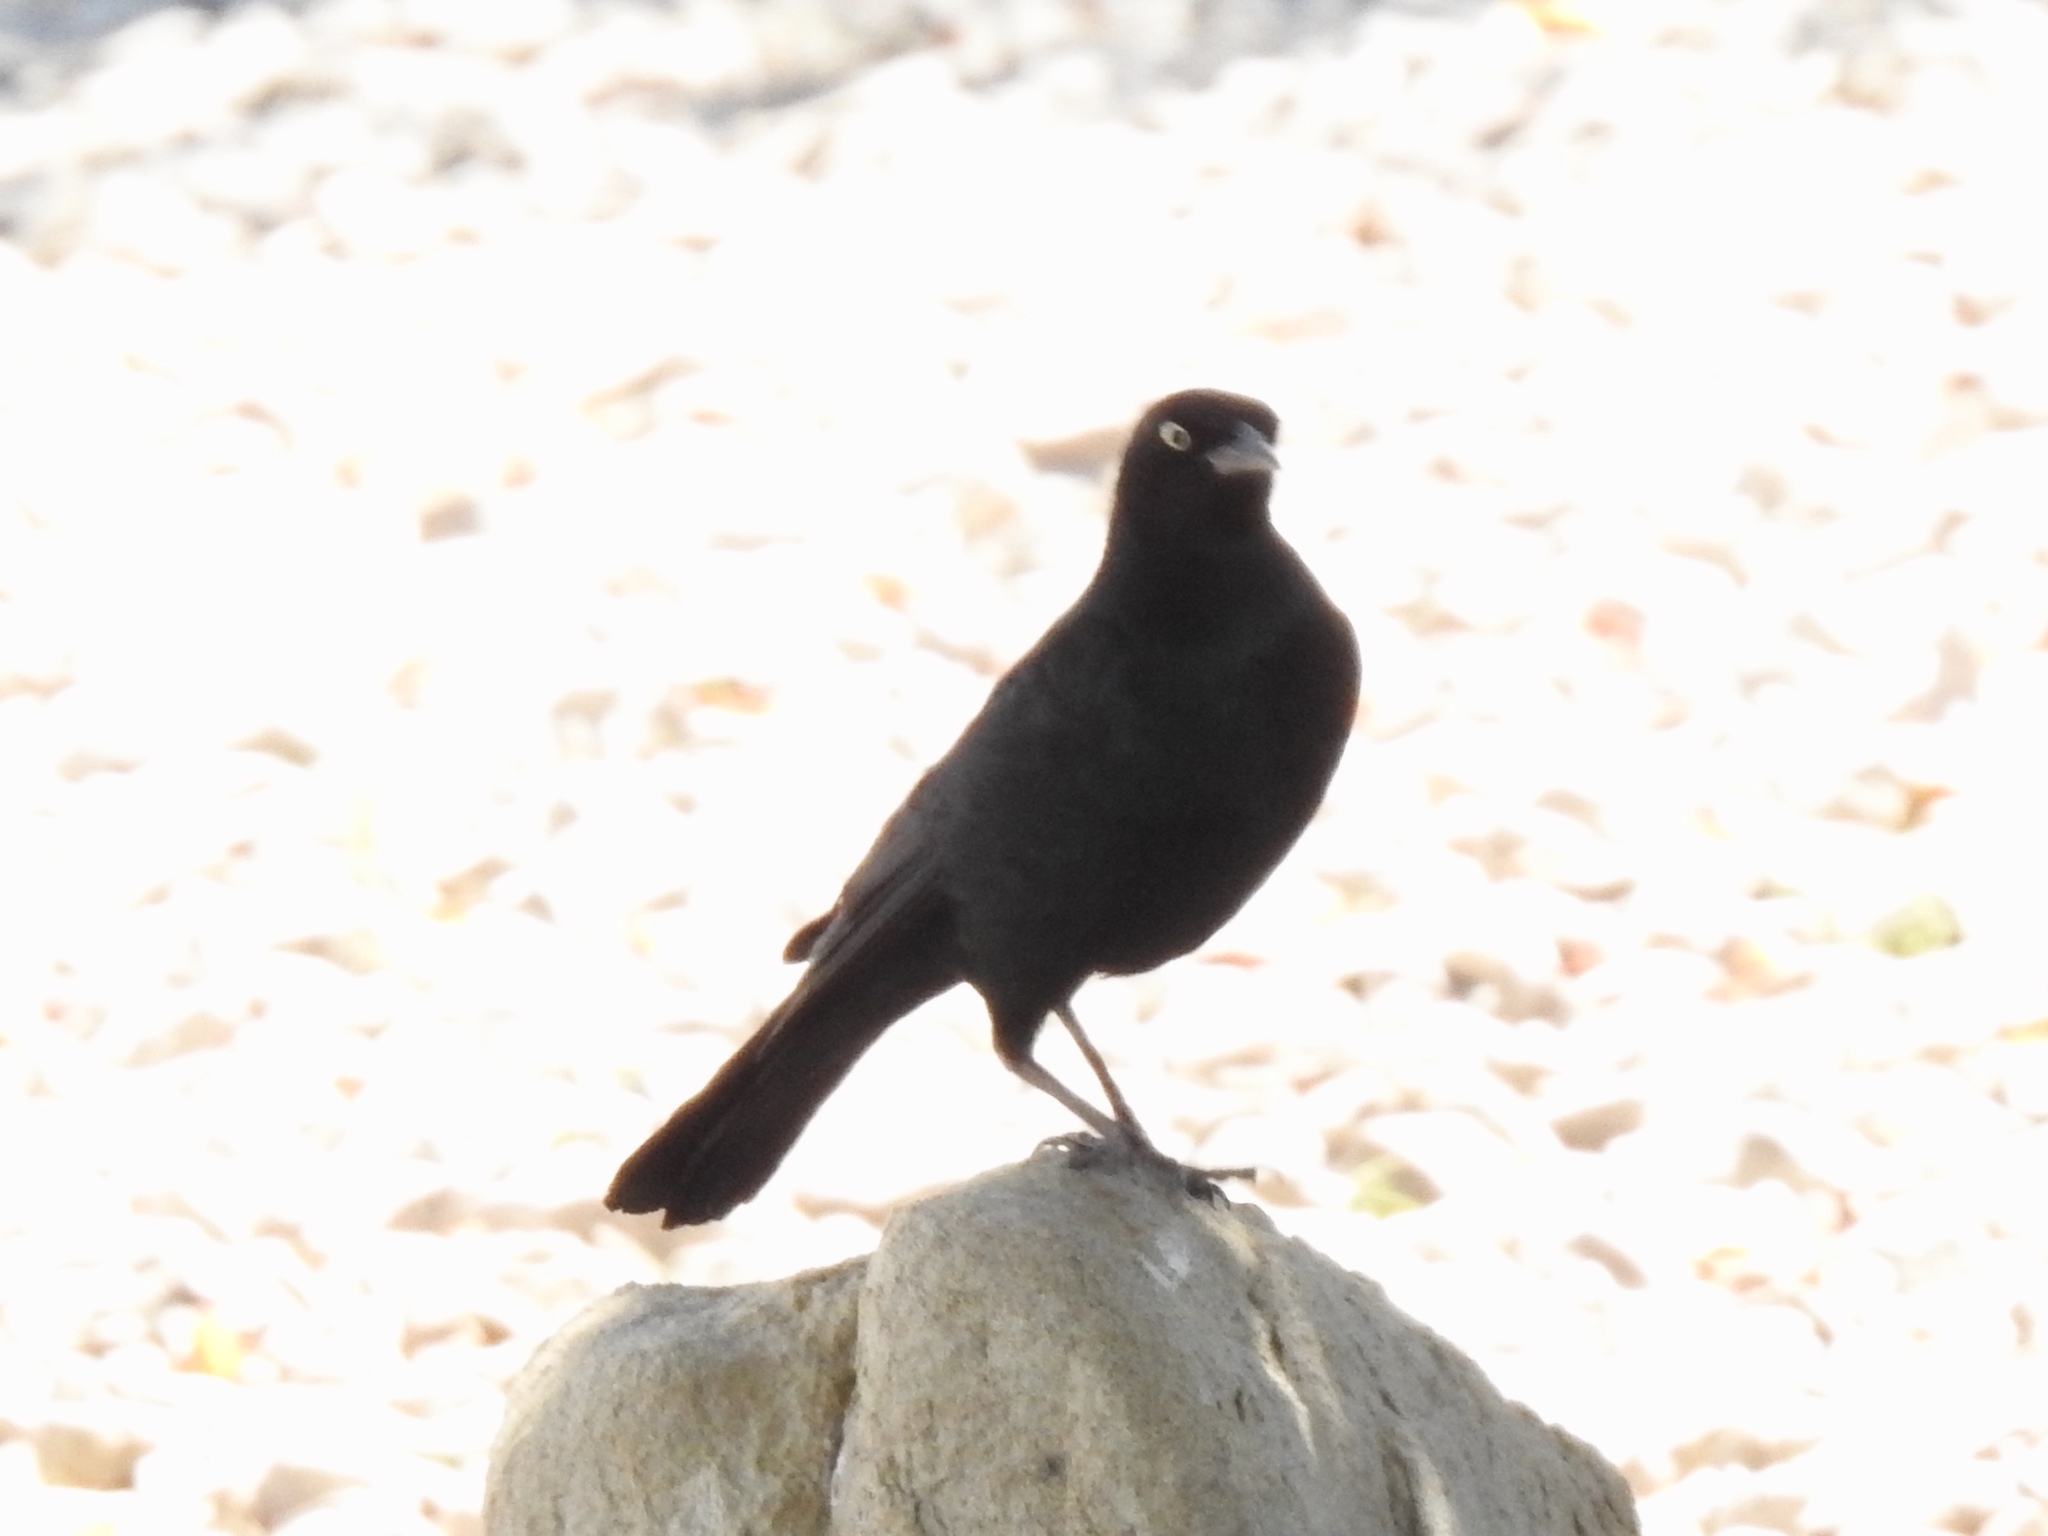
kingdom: Animalia
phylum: Chordata
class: Aves
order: Passeriformes
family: Icteridae
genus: Euphagus
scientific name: Euphagus cyanocephalus
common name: Brewer's blackbird
